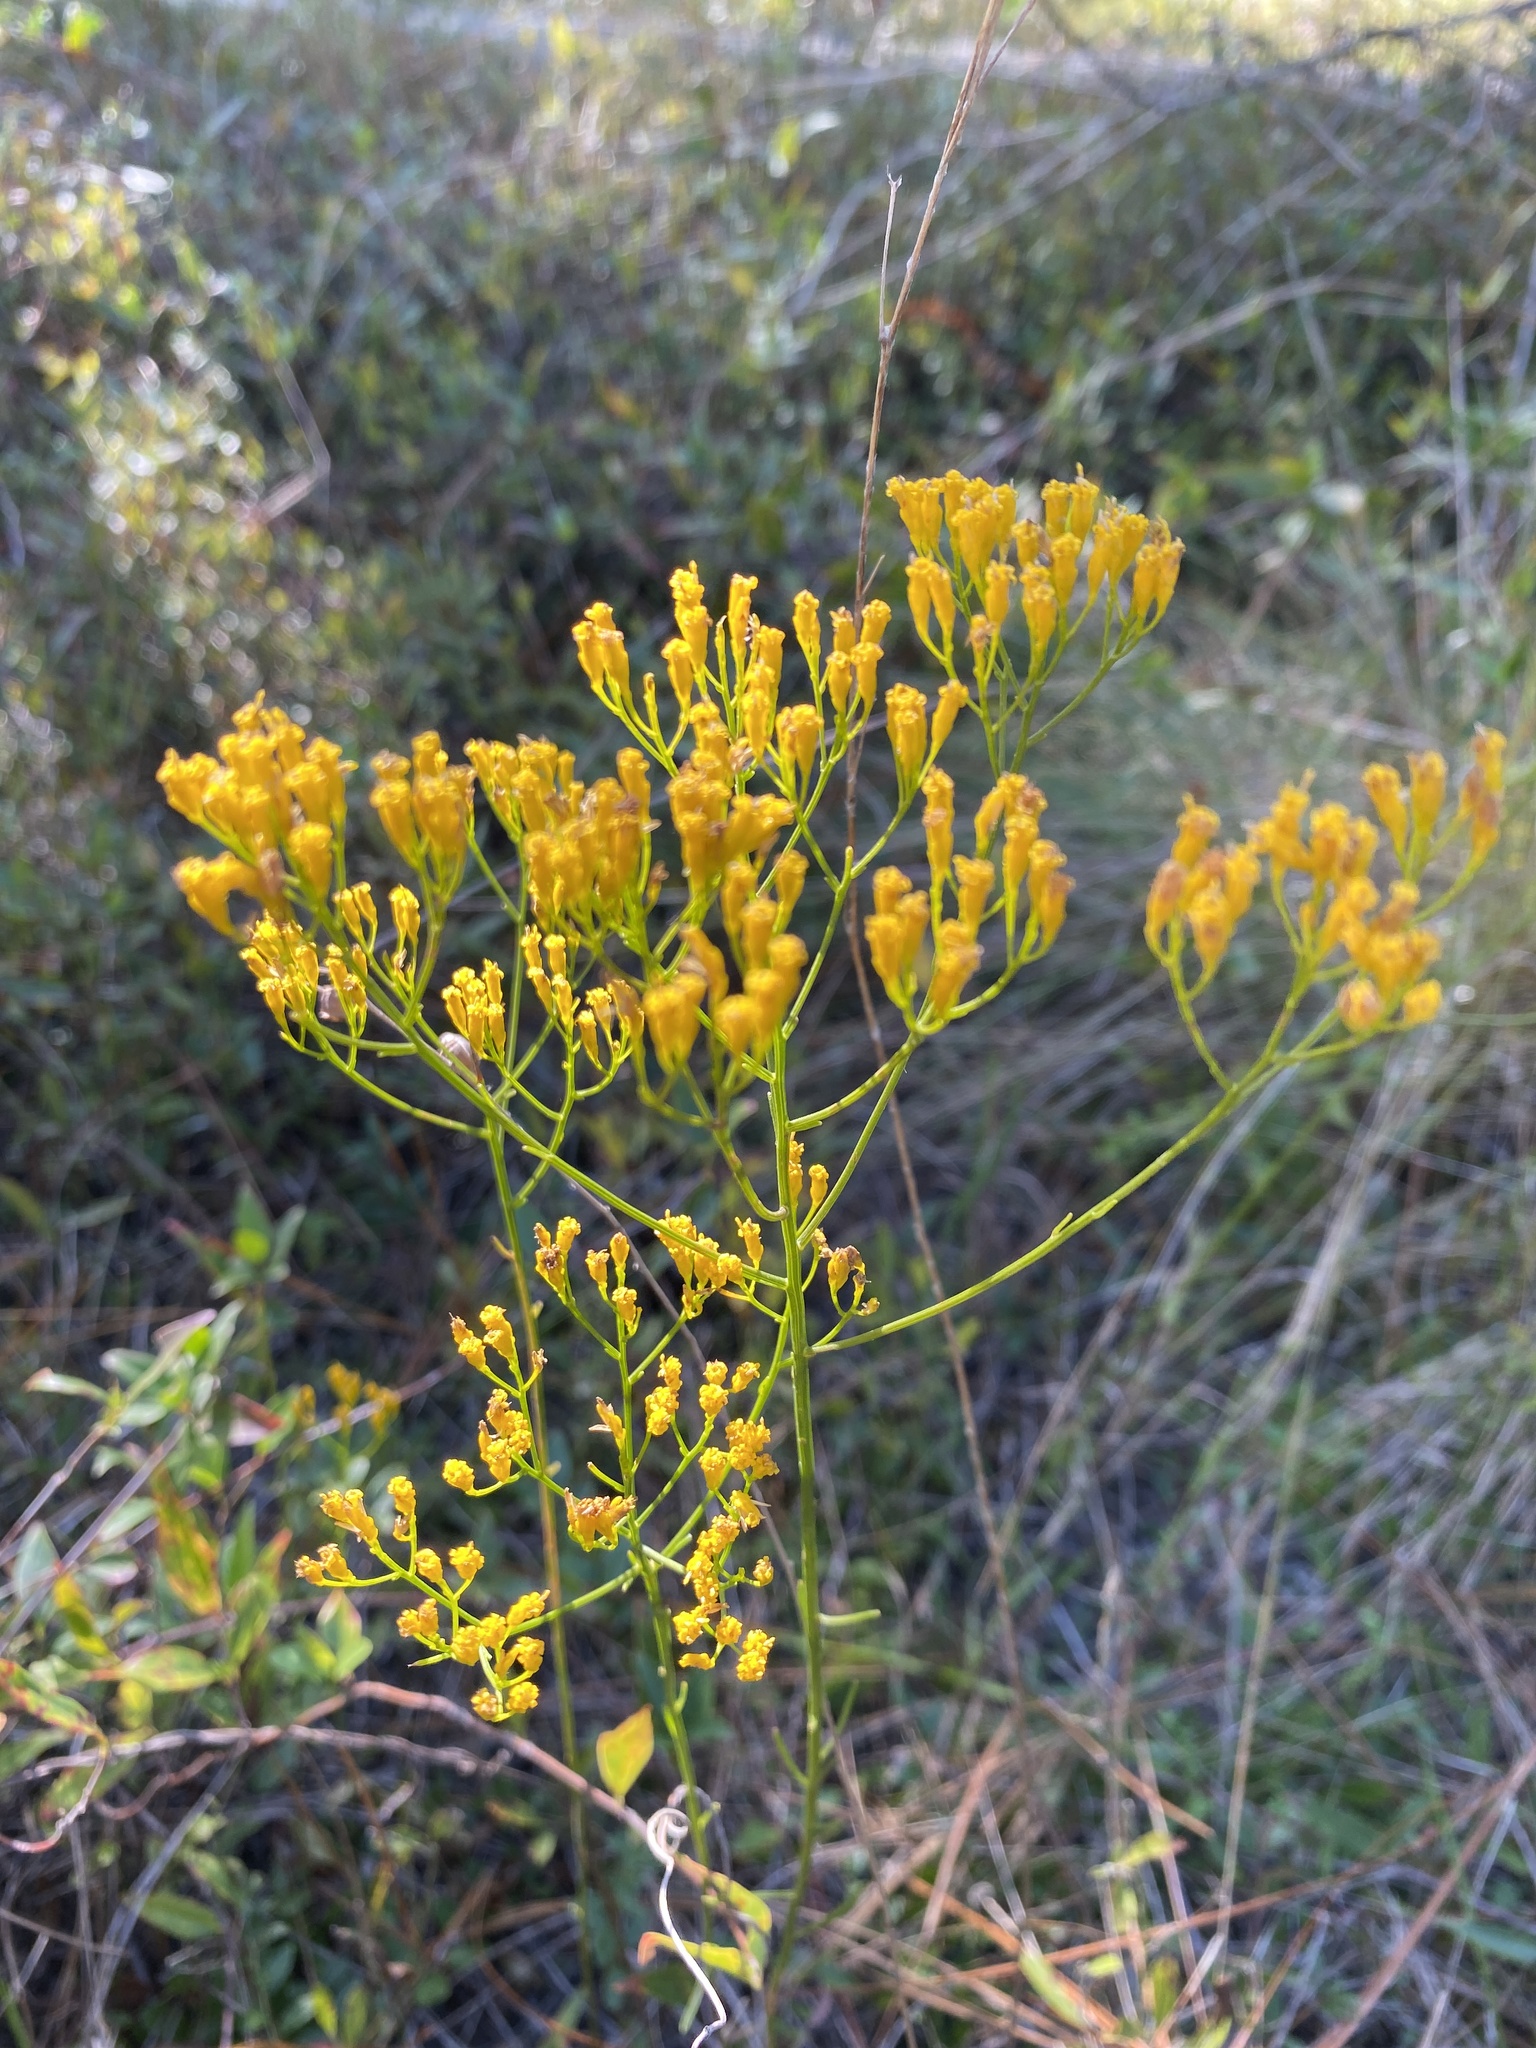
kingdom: Plantae
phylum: Tracheophyta
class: Magnoliopsida
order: Asterales
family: Asteraceae
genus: Bigelowia
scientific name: Bigelowia nudata
